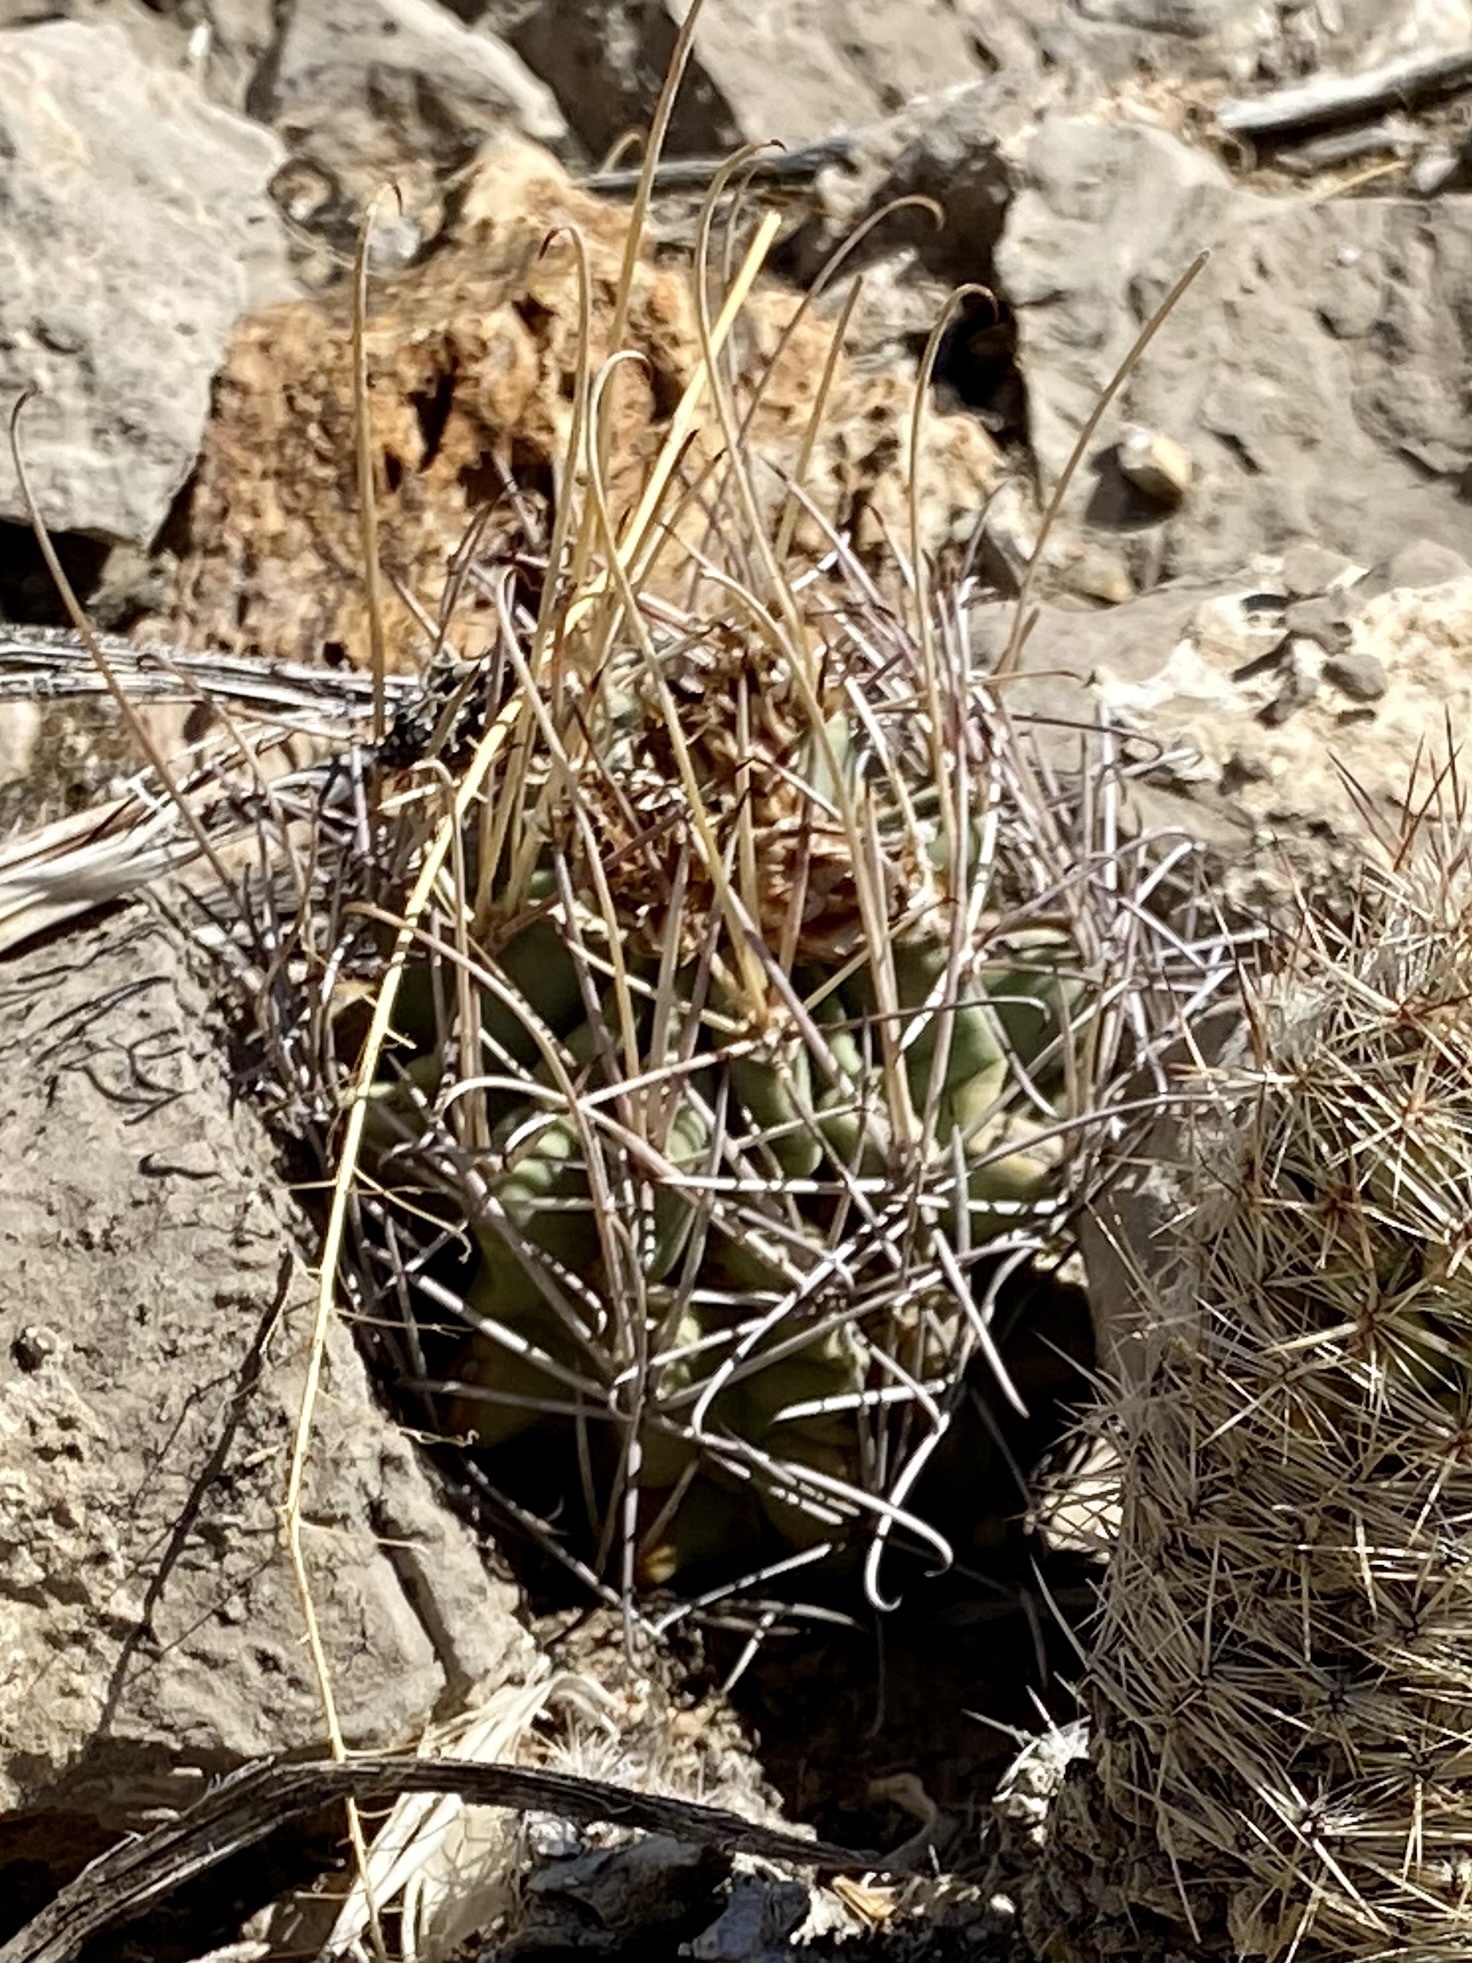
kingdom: Plantae
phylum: Tracheophyta
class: Magnoliopsida
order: Caryophyllales
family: Cactaceae
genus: Ferocactus
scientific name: Ferocactus uncinatus
